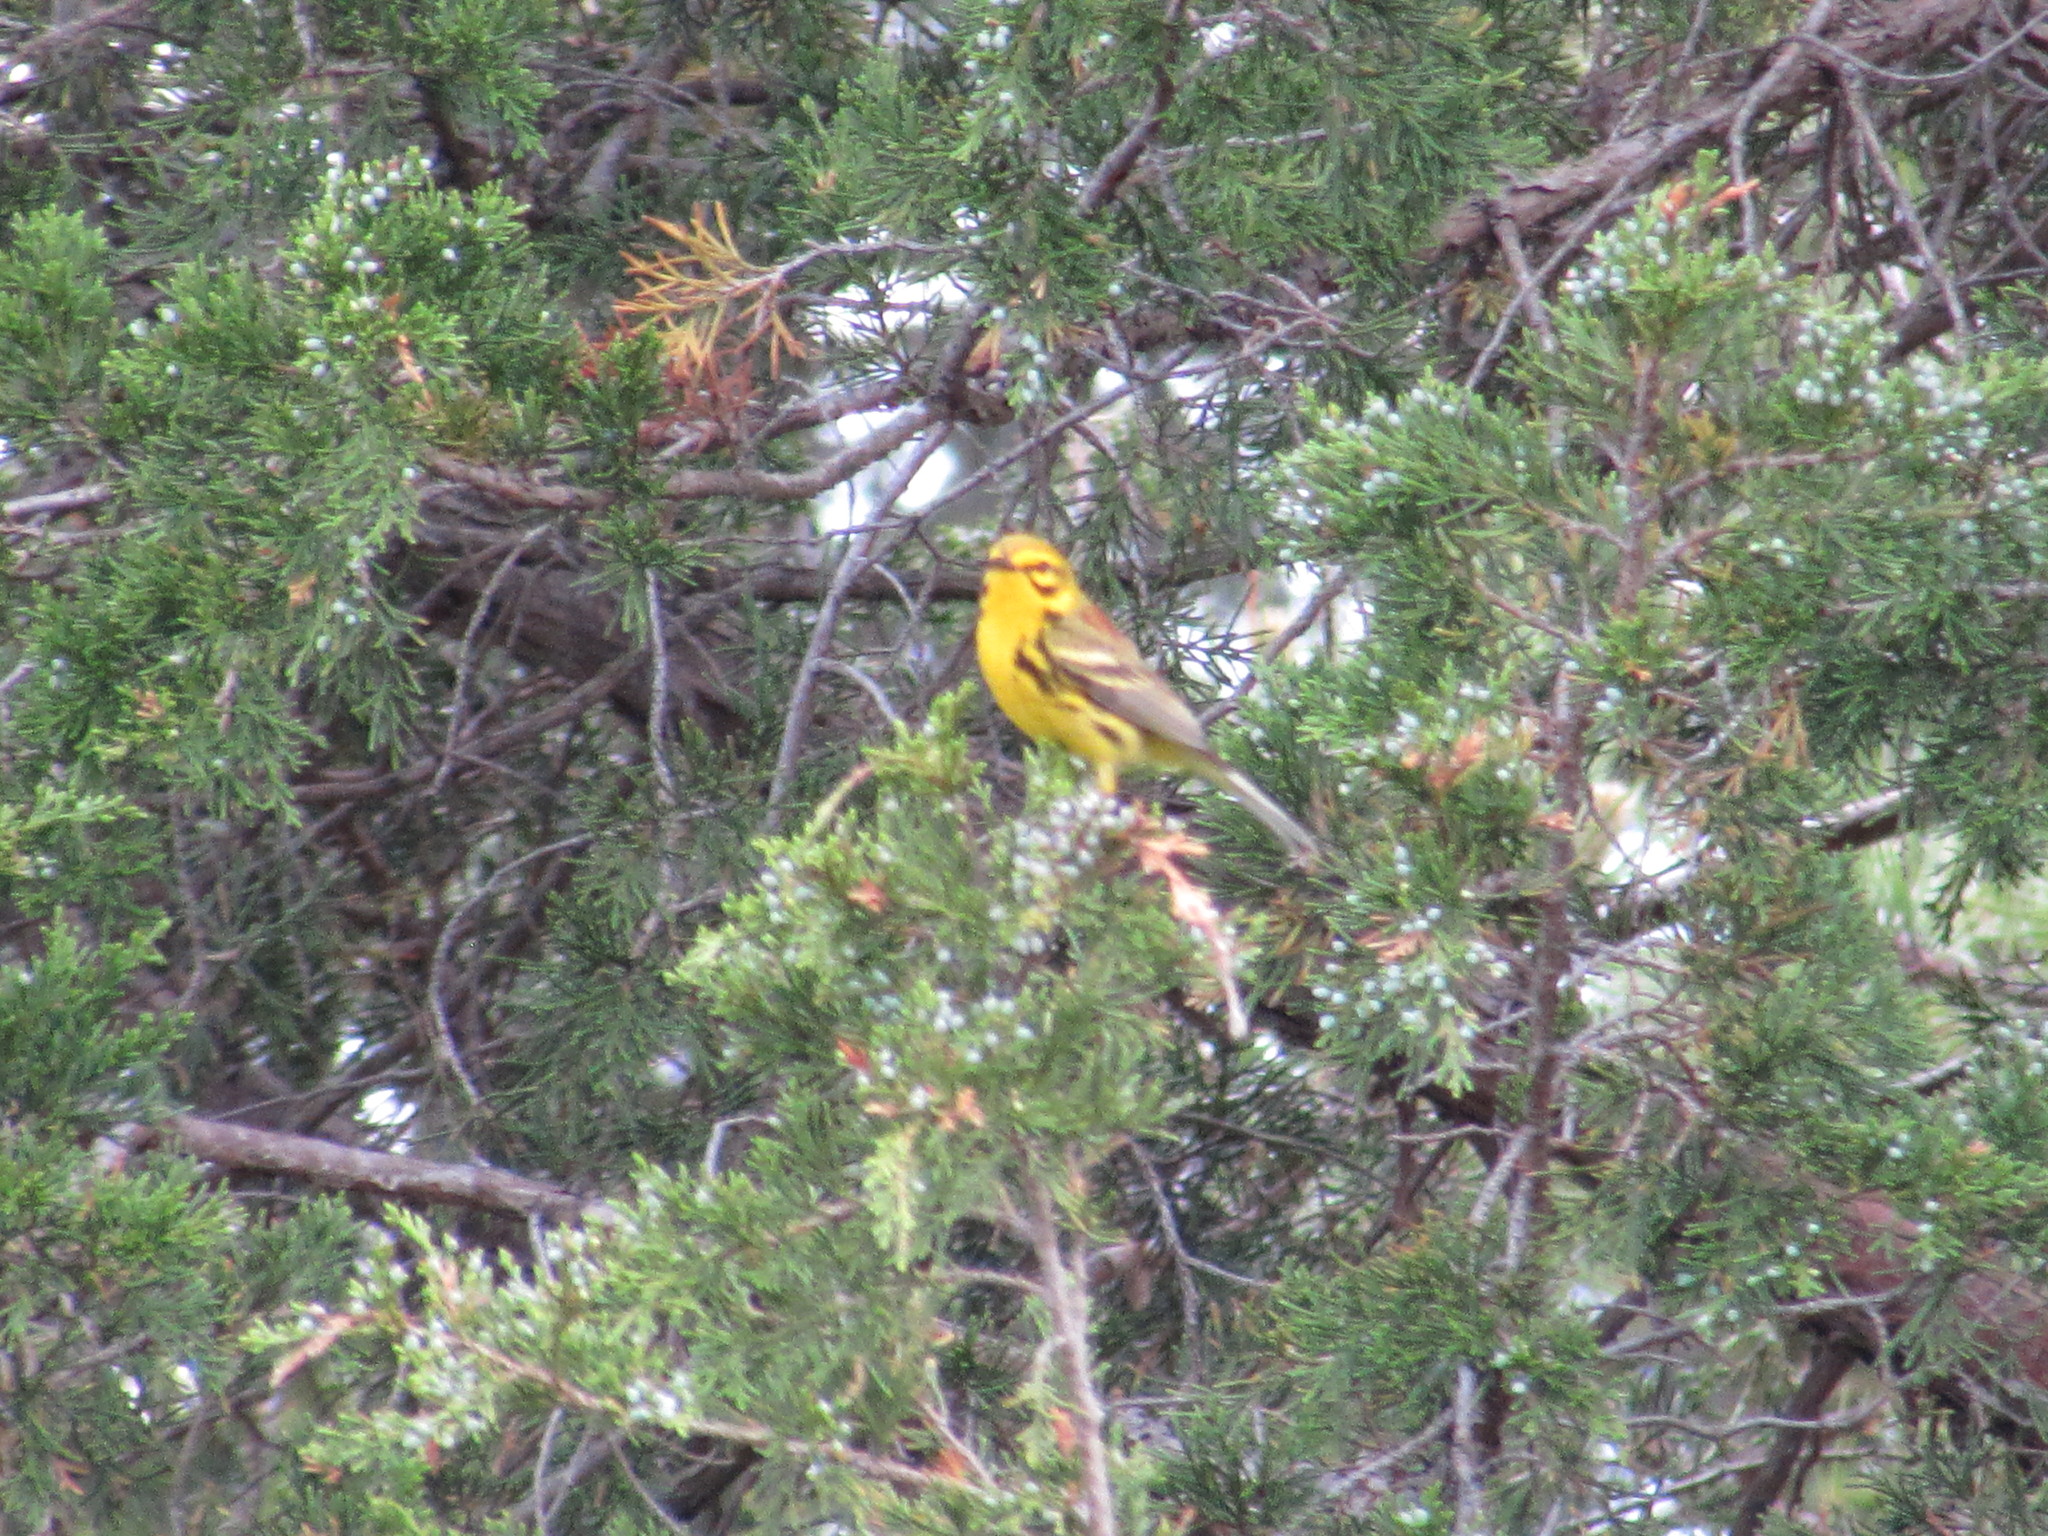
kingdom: Animalia
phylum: Chordata
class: Aves
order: Passeriformes
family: Parulidae
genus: Setophaga
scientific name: Setophaga discolor
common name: Prairie warbler
